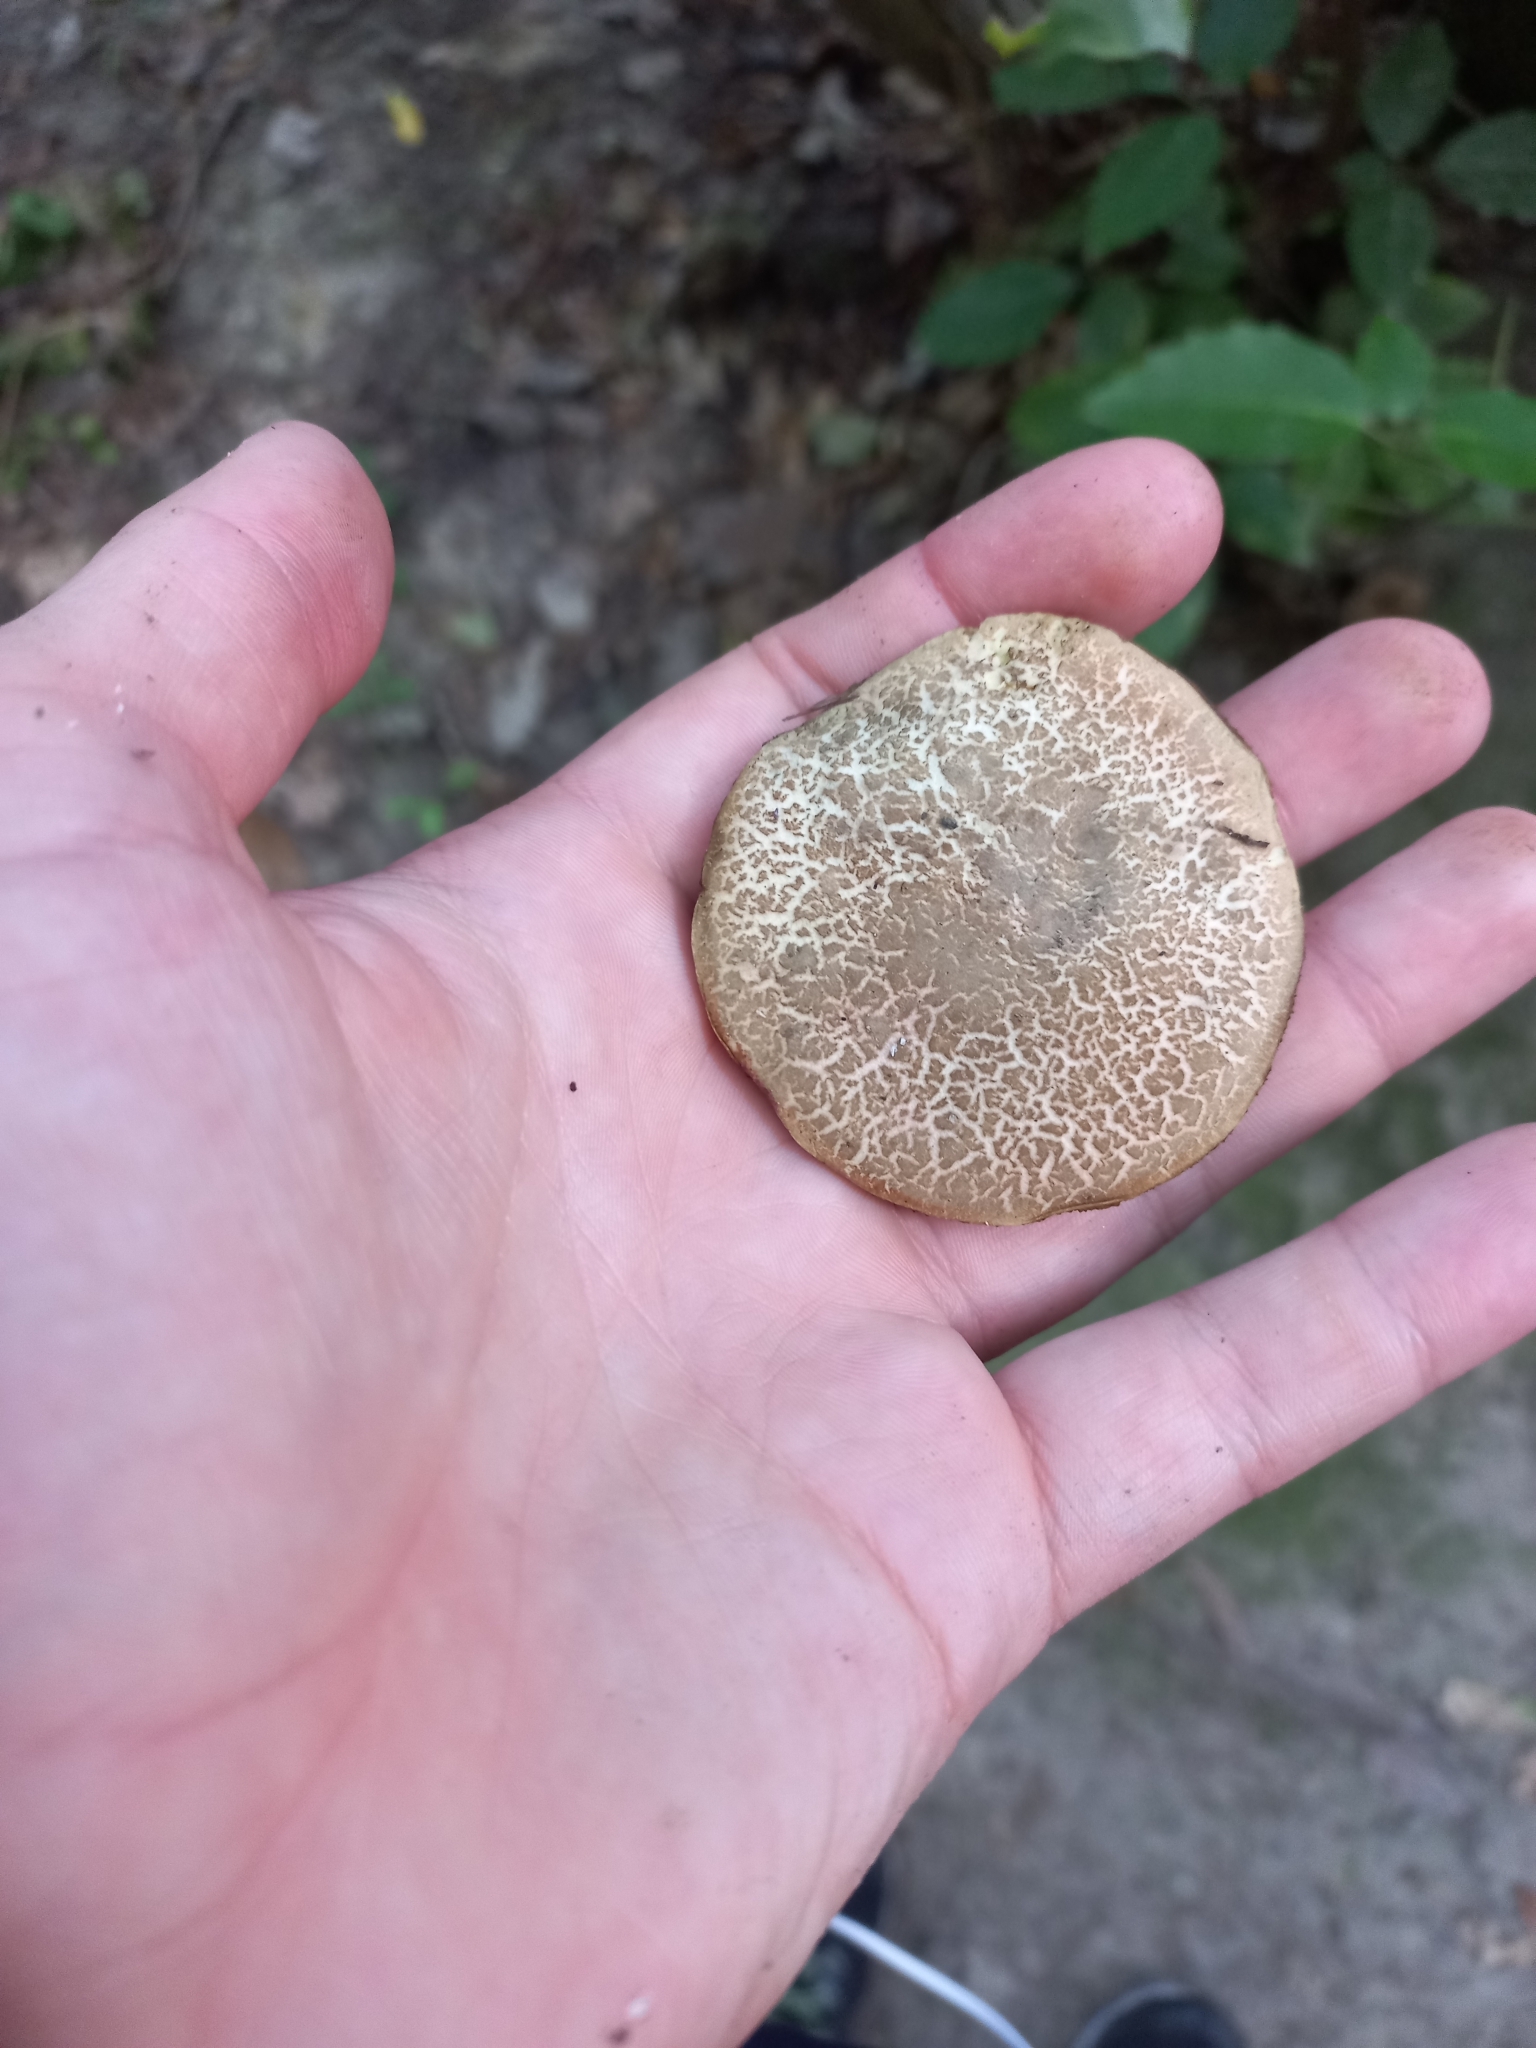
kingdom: Fungi
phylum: Basidiomycota
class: Agaricomycetes
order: Boletales
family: Boletaceae
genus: Xerocomellus
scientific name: Xerocomellus cisalpinus
